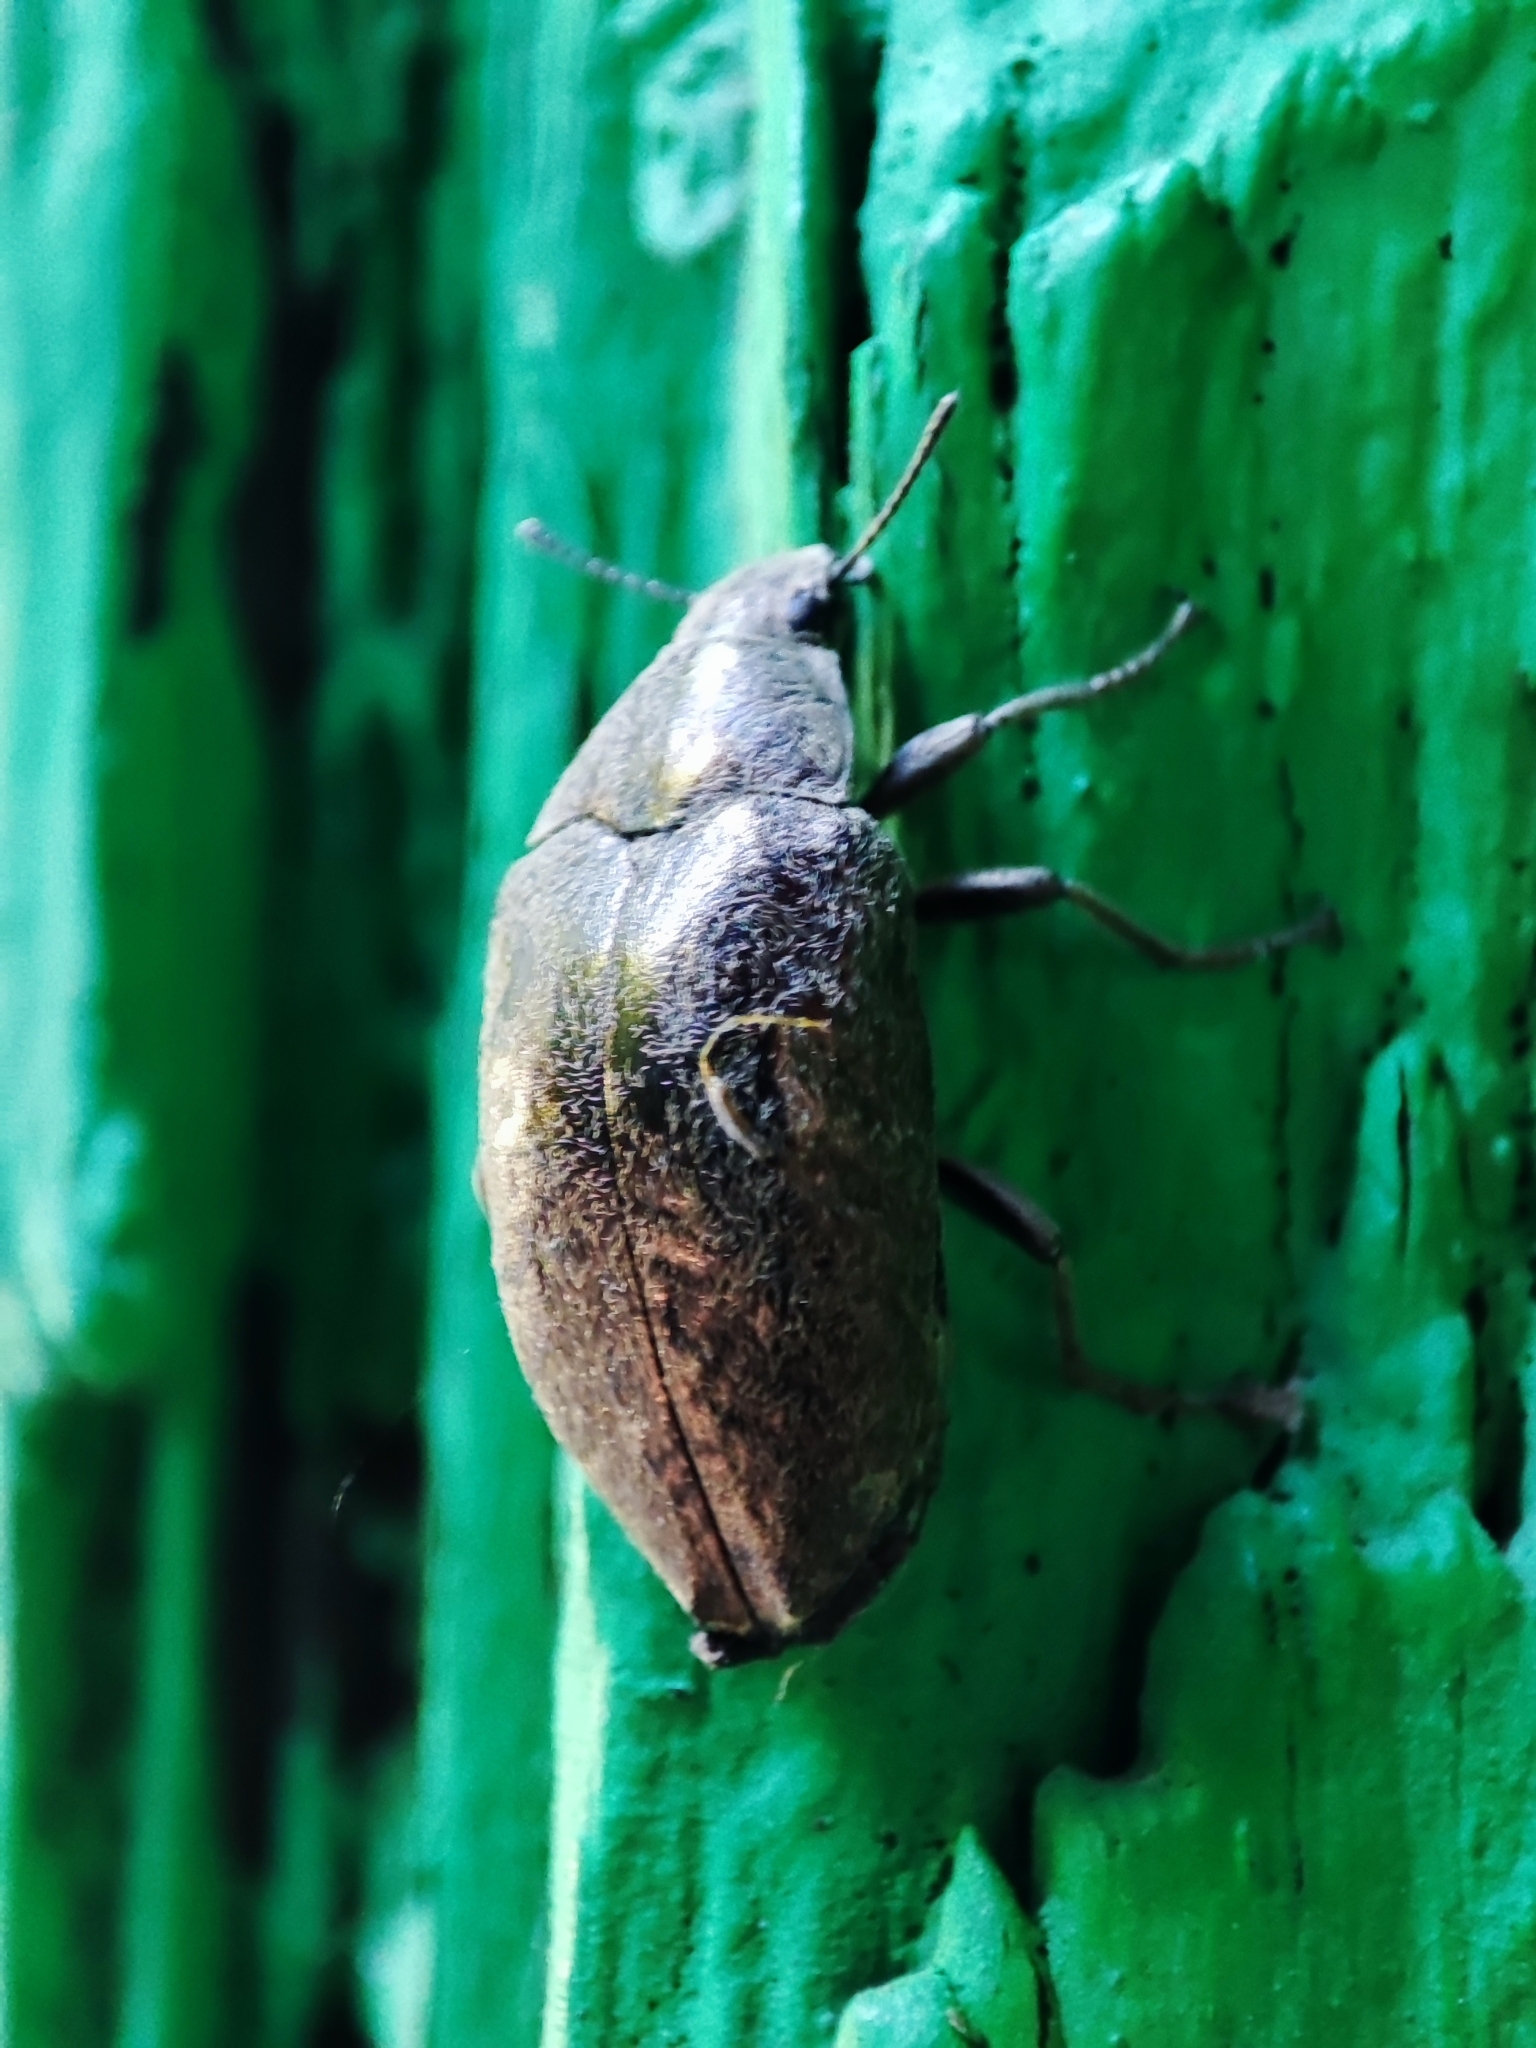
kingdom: Animalia
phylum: Arthropoda
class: Insecta
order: Coleoptera
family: Tenebrionidae
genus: Cyrtomius
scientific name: Cyrtomius plicatus
